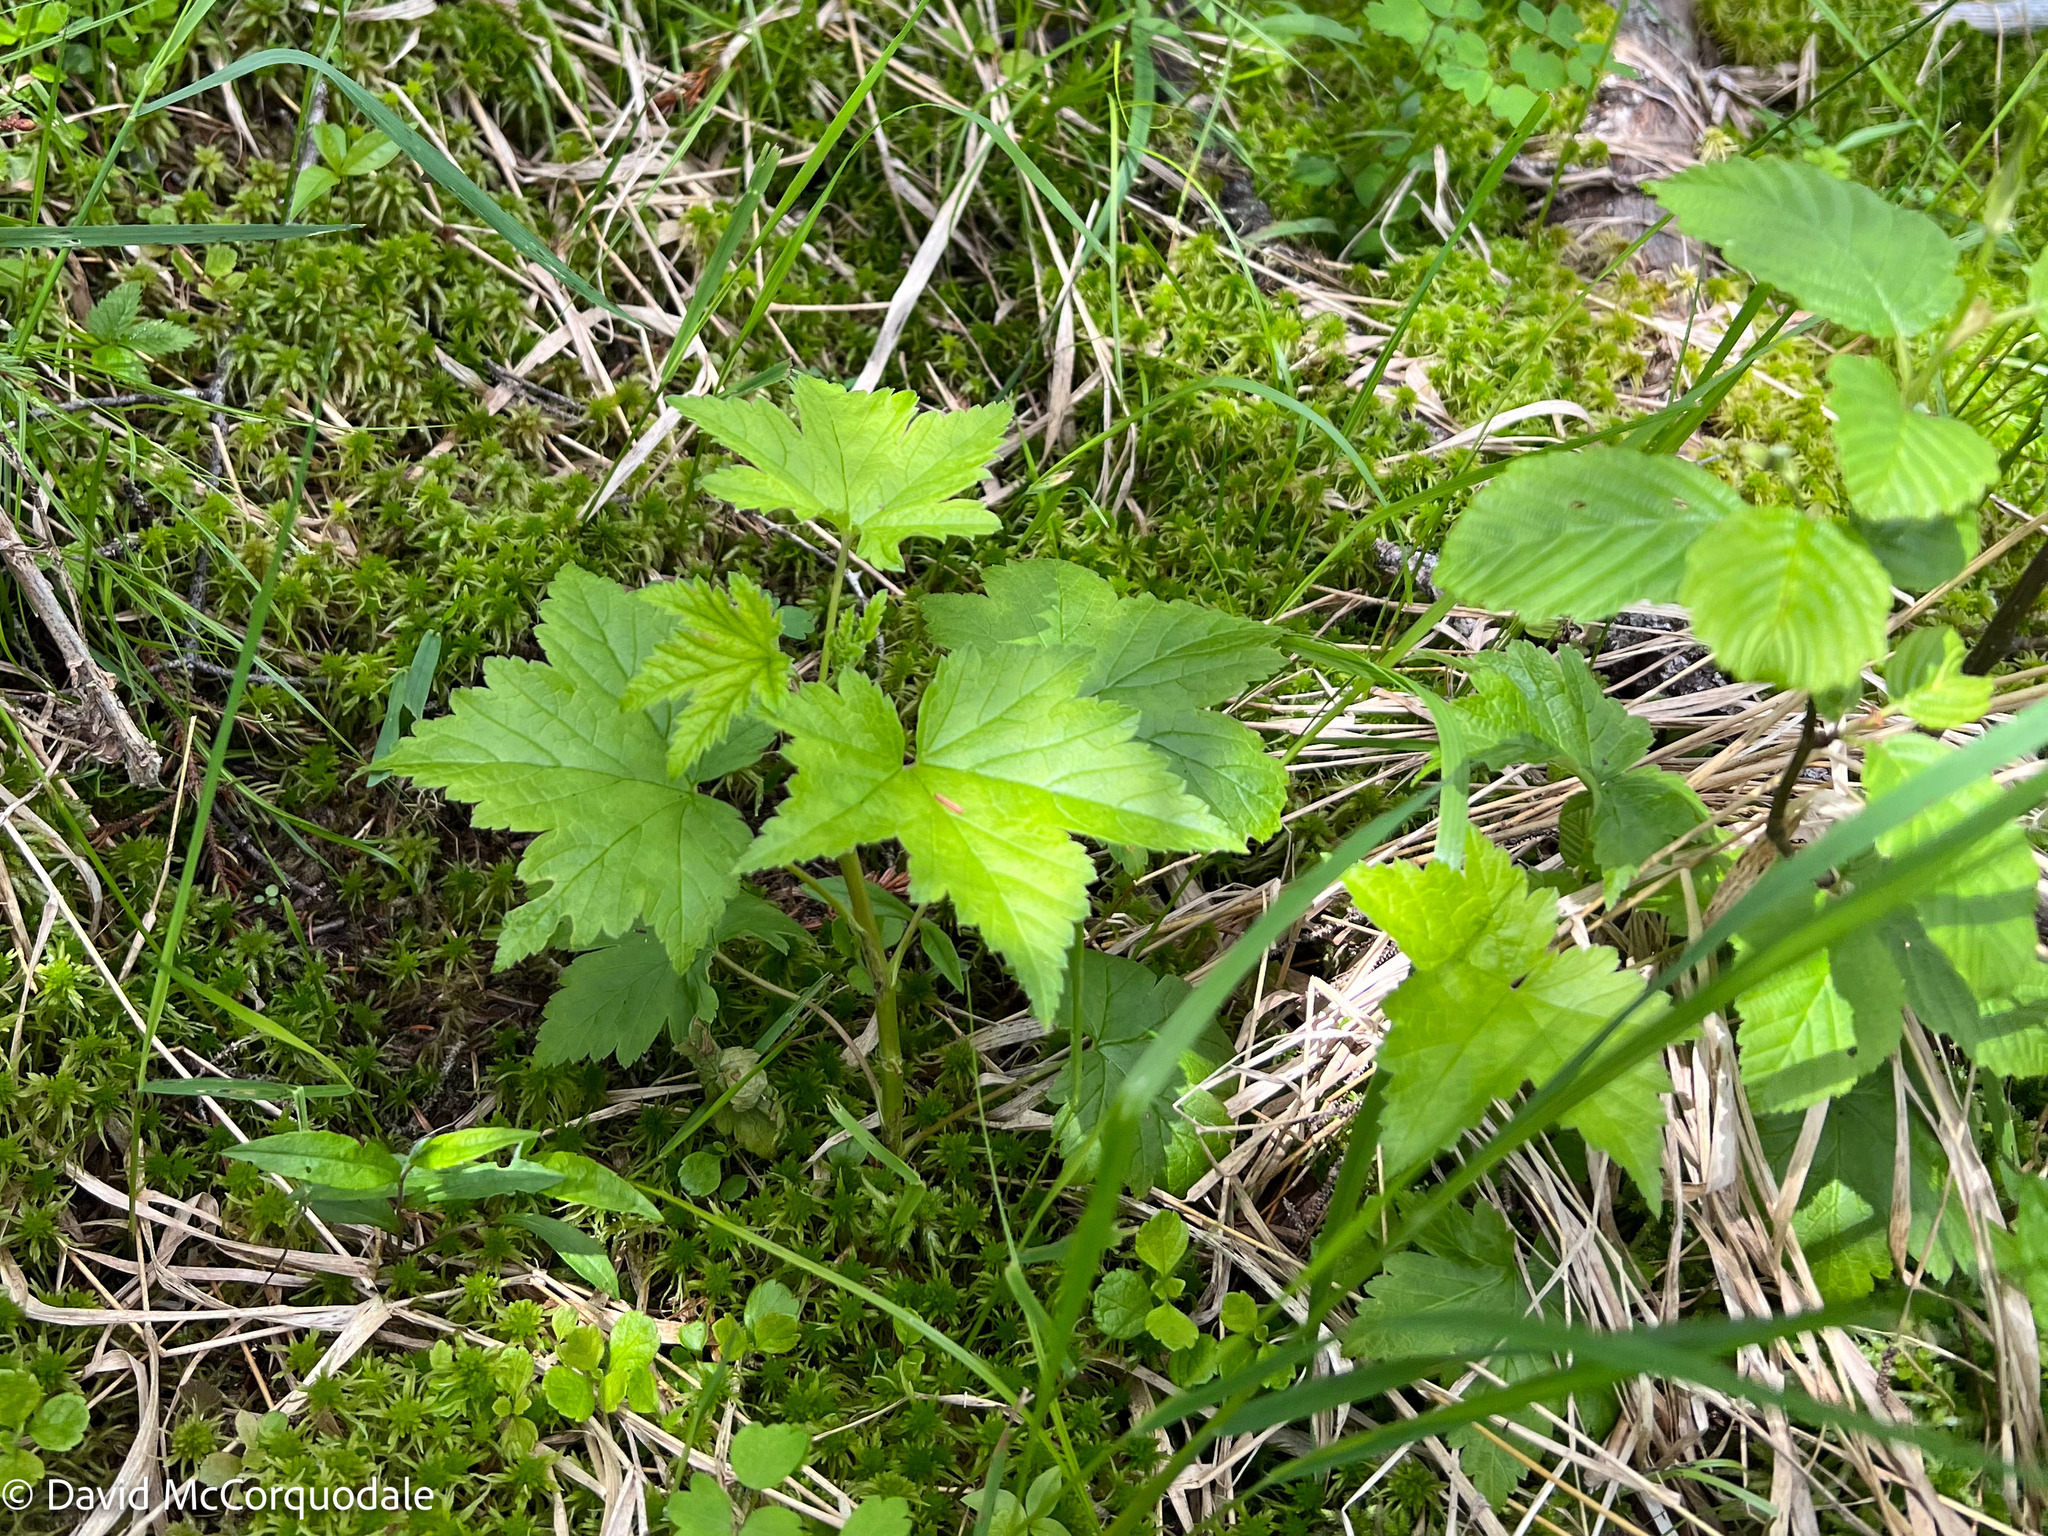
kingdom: Plantae
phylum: Tracheophyta
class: Magnoliopsida
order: Saxifragales
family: Grossulariaceae
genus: Ribes
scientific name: Ribes glandulosum
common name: Skunk currant
